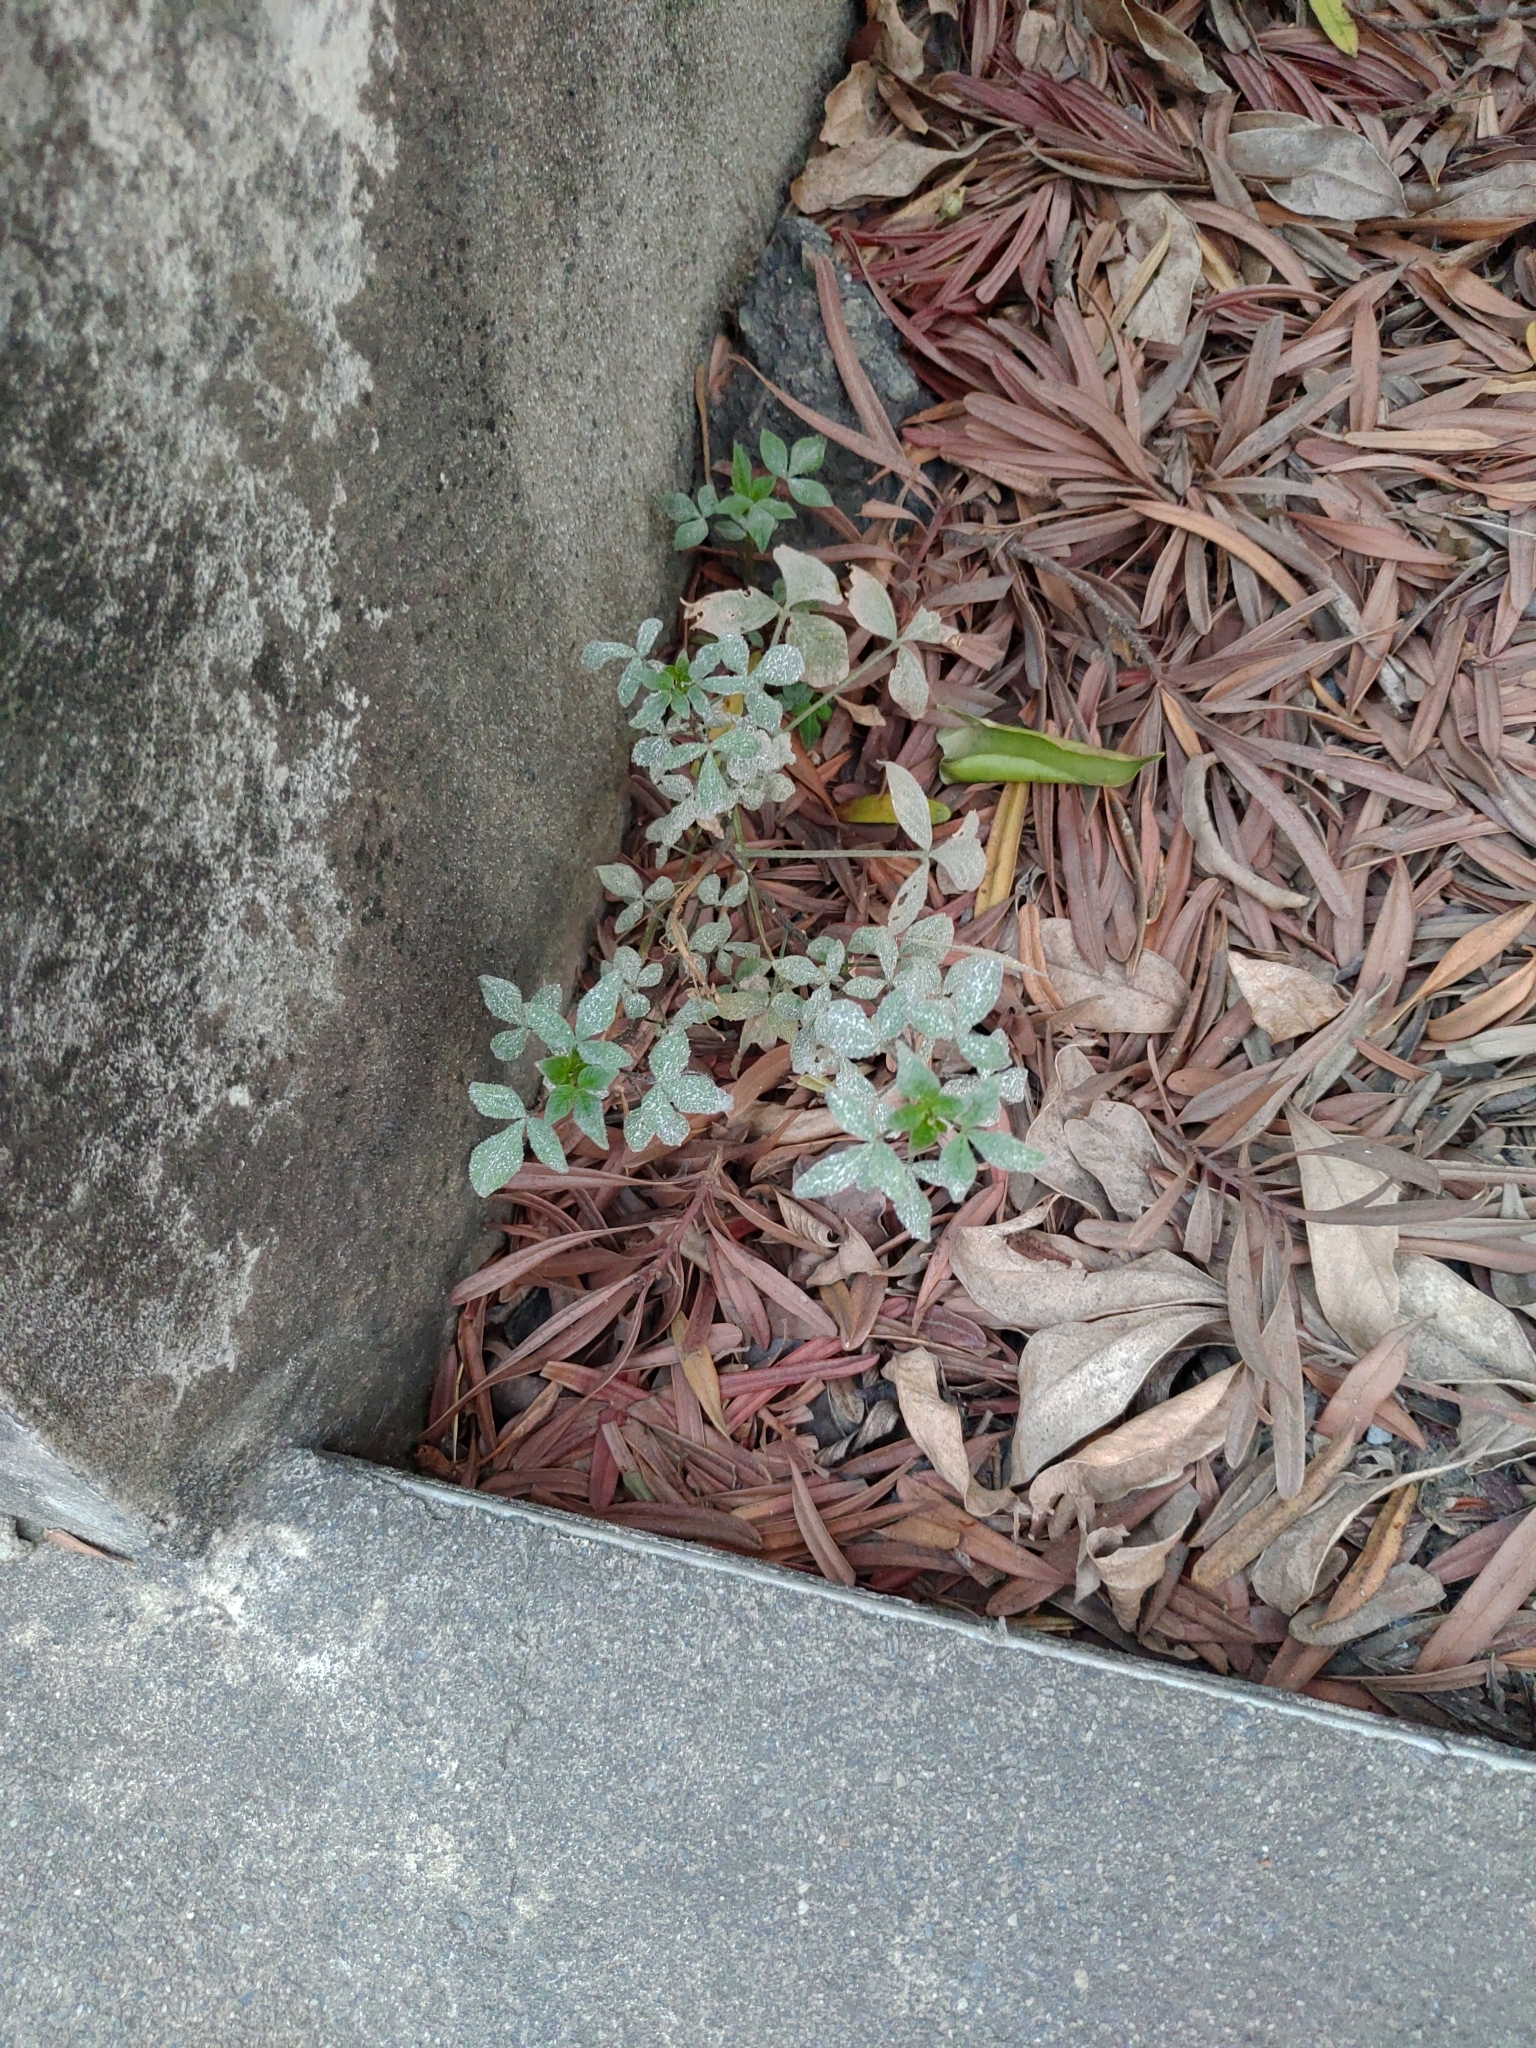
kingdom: Plantae
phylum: Tracheophyta
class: Magnoliopsida
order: Brassicales
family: Cleomaceae
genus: Sieruela
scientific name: Sieruela rutidosperma
